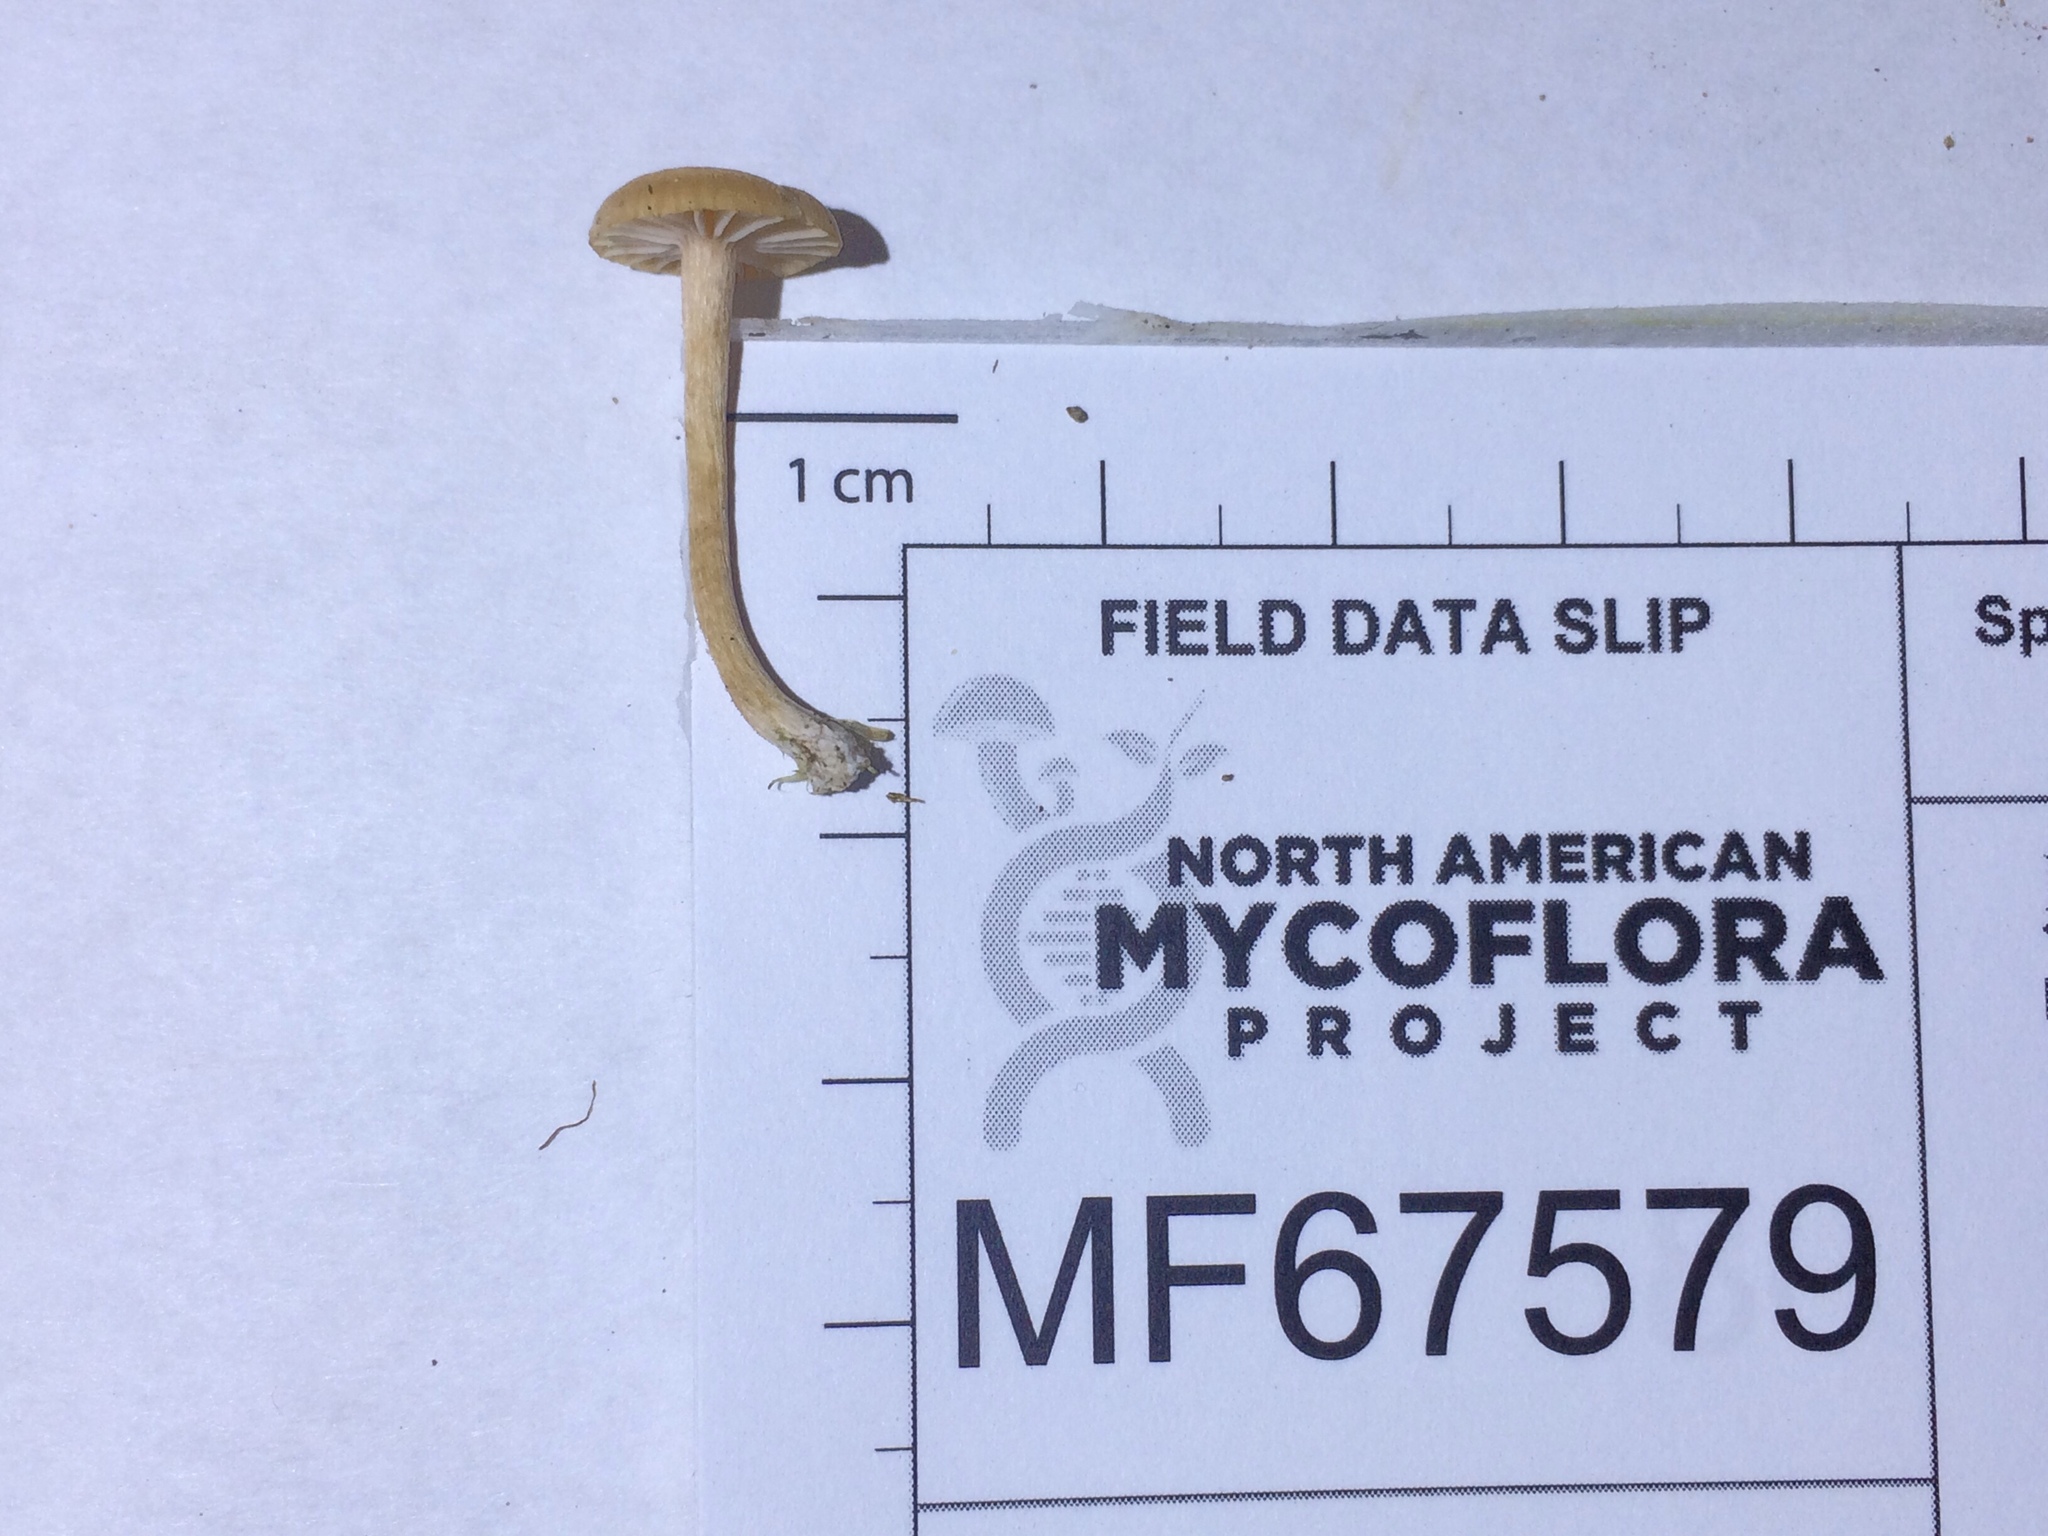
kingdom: Fungi
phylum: Basidiomycota
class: Agaricomycetes
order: Agaricales
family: Hydnangiaceae
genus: Laccaria
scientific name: Laccaria laccata
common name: Deceiver
